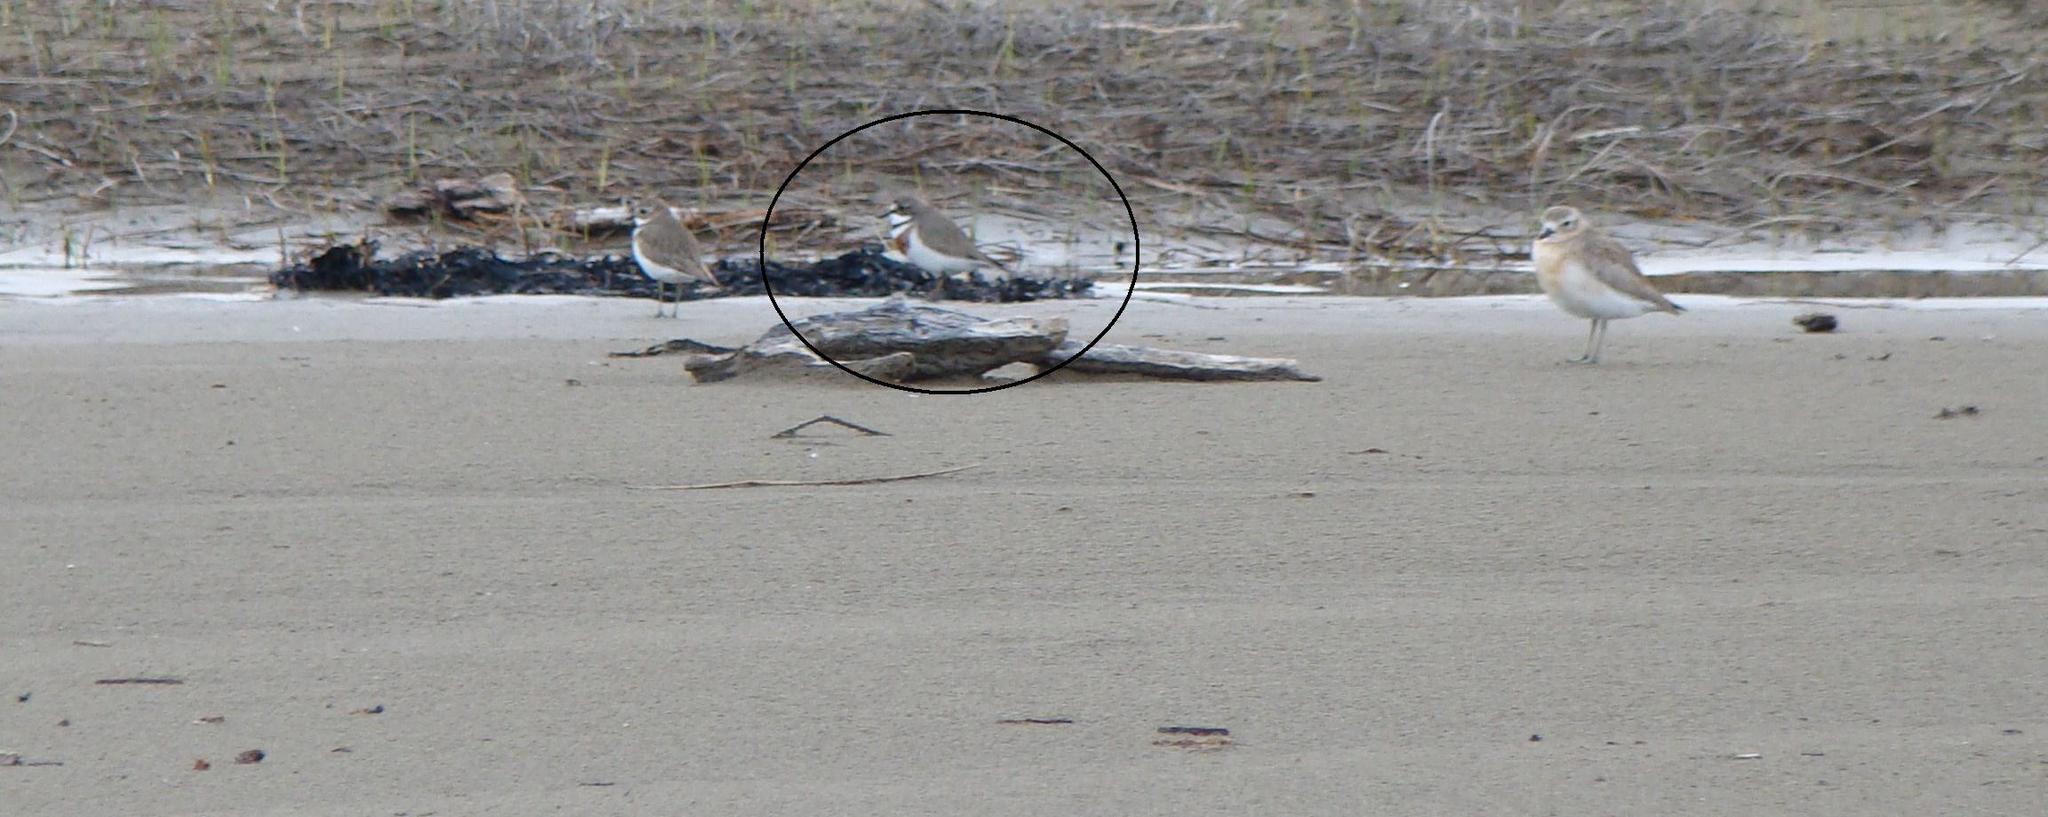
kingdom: Animalia
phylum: Chordata
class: Aves
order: Charadriiformes
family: Charadriidae
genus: Anarhynchus
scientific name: Anarhynchus
